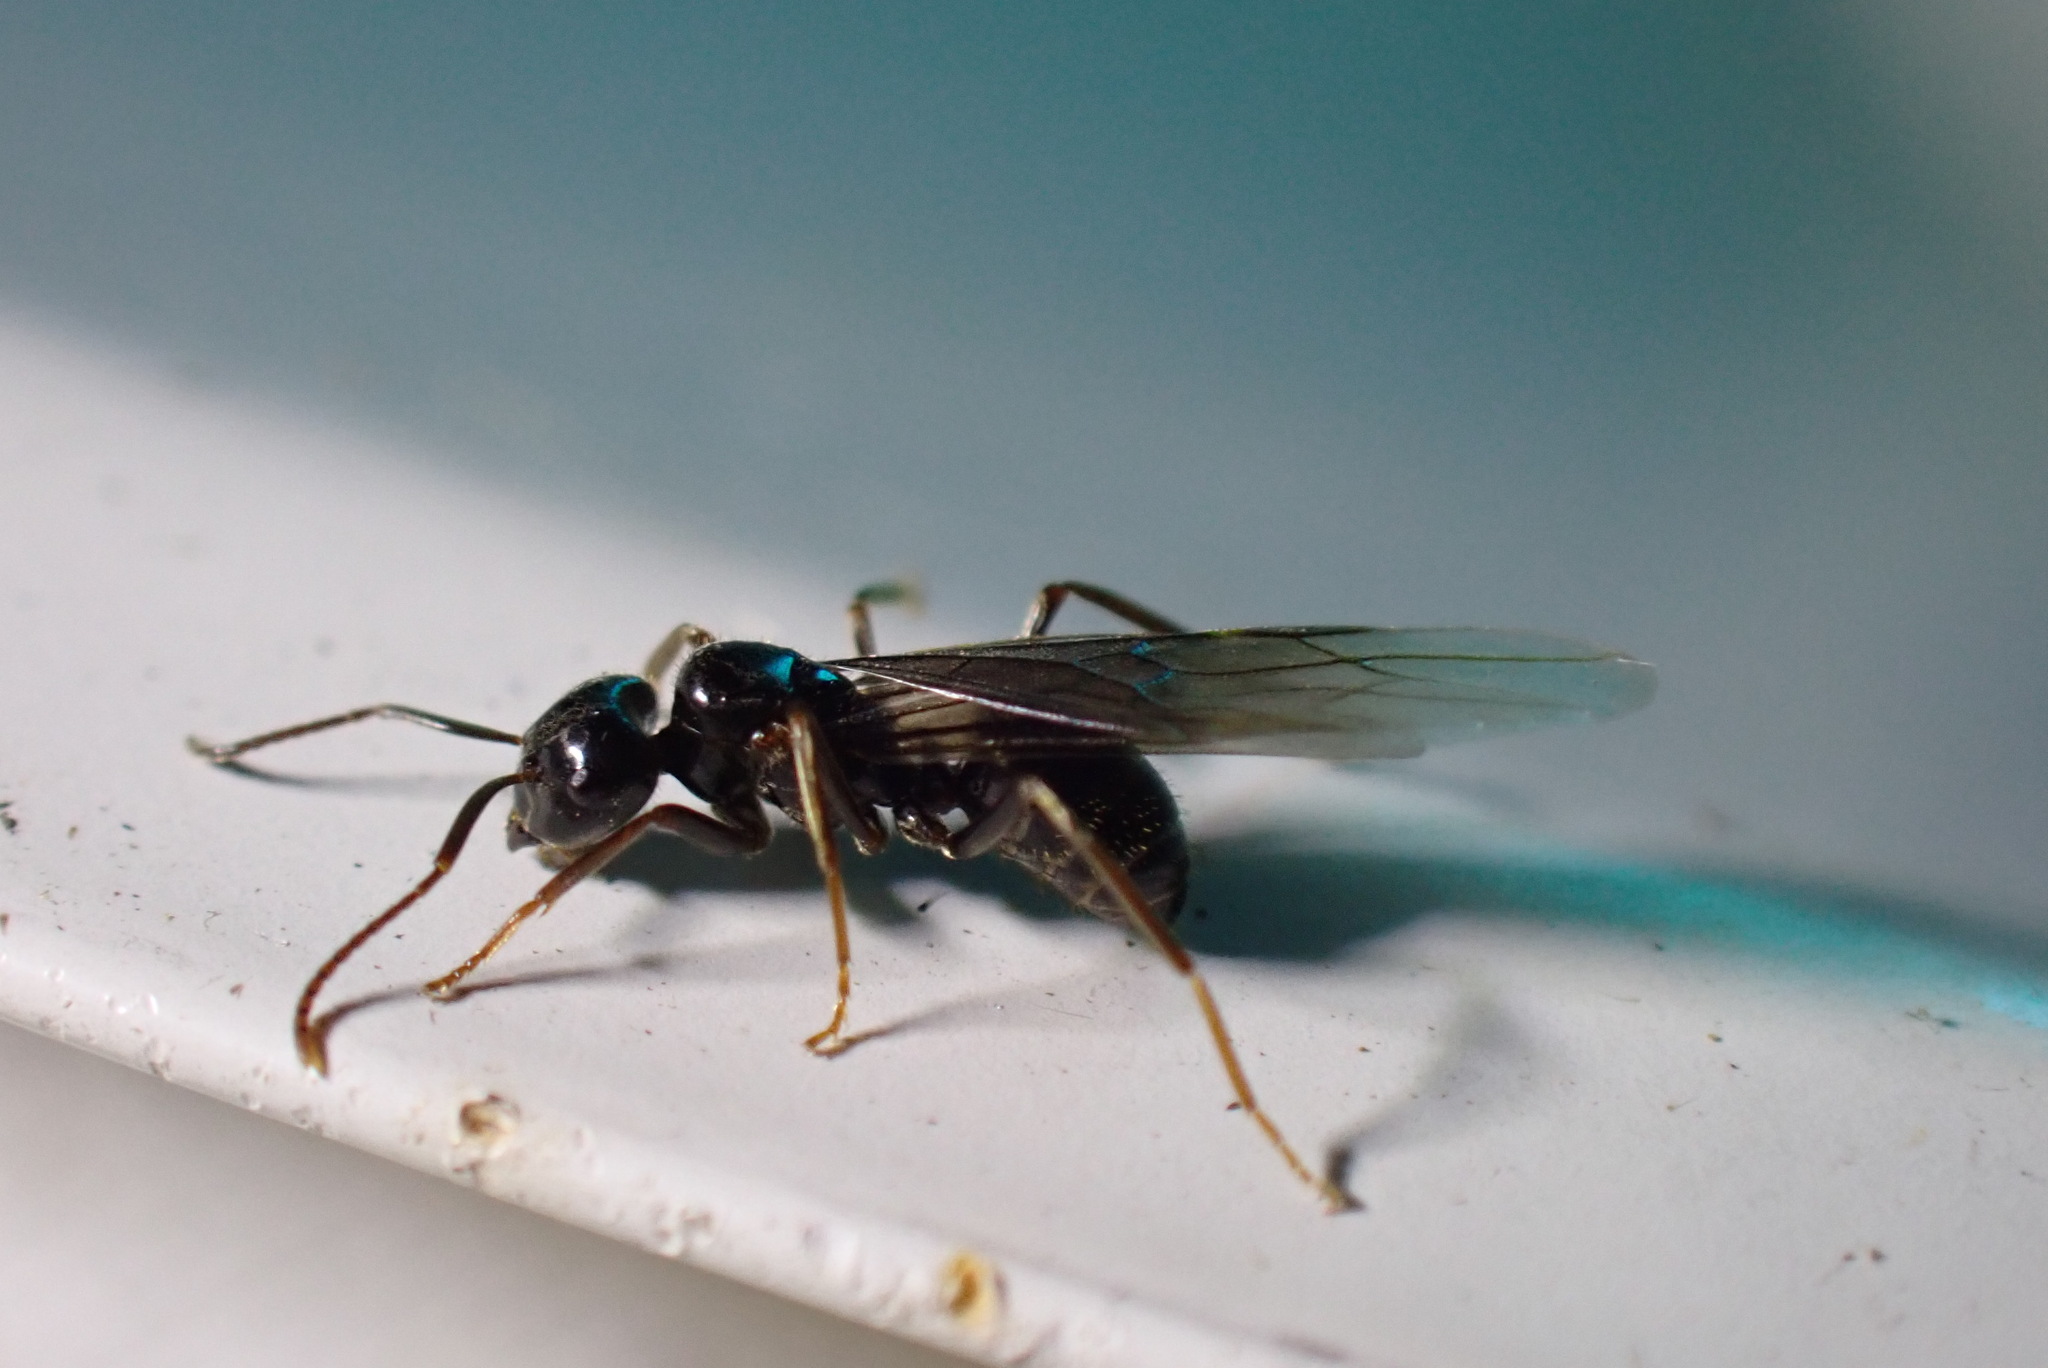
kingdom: Animalia
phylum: Arthropoda
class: Insecta
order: Hymenoptera
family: Formicidae
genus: Lasius
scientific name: Lasius fuliginosus
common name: Jet ant
